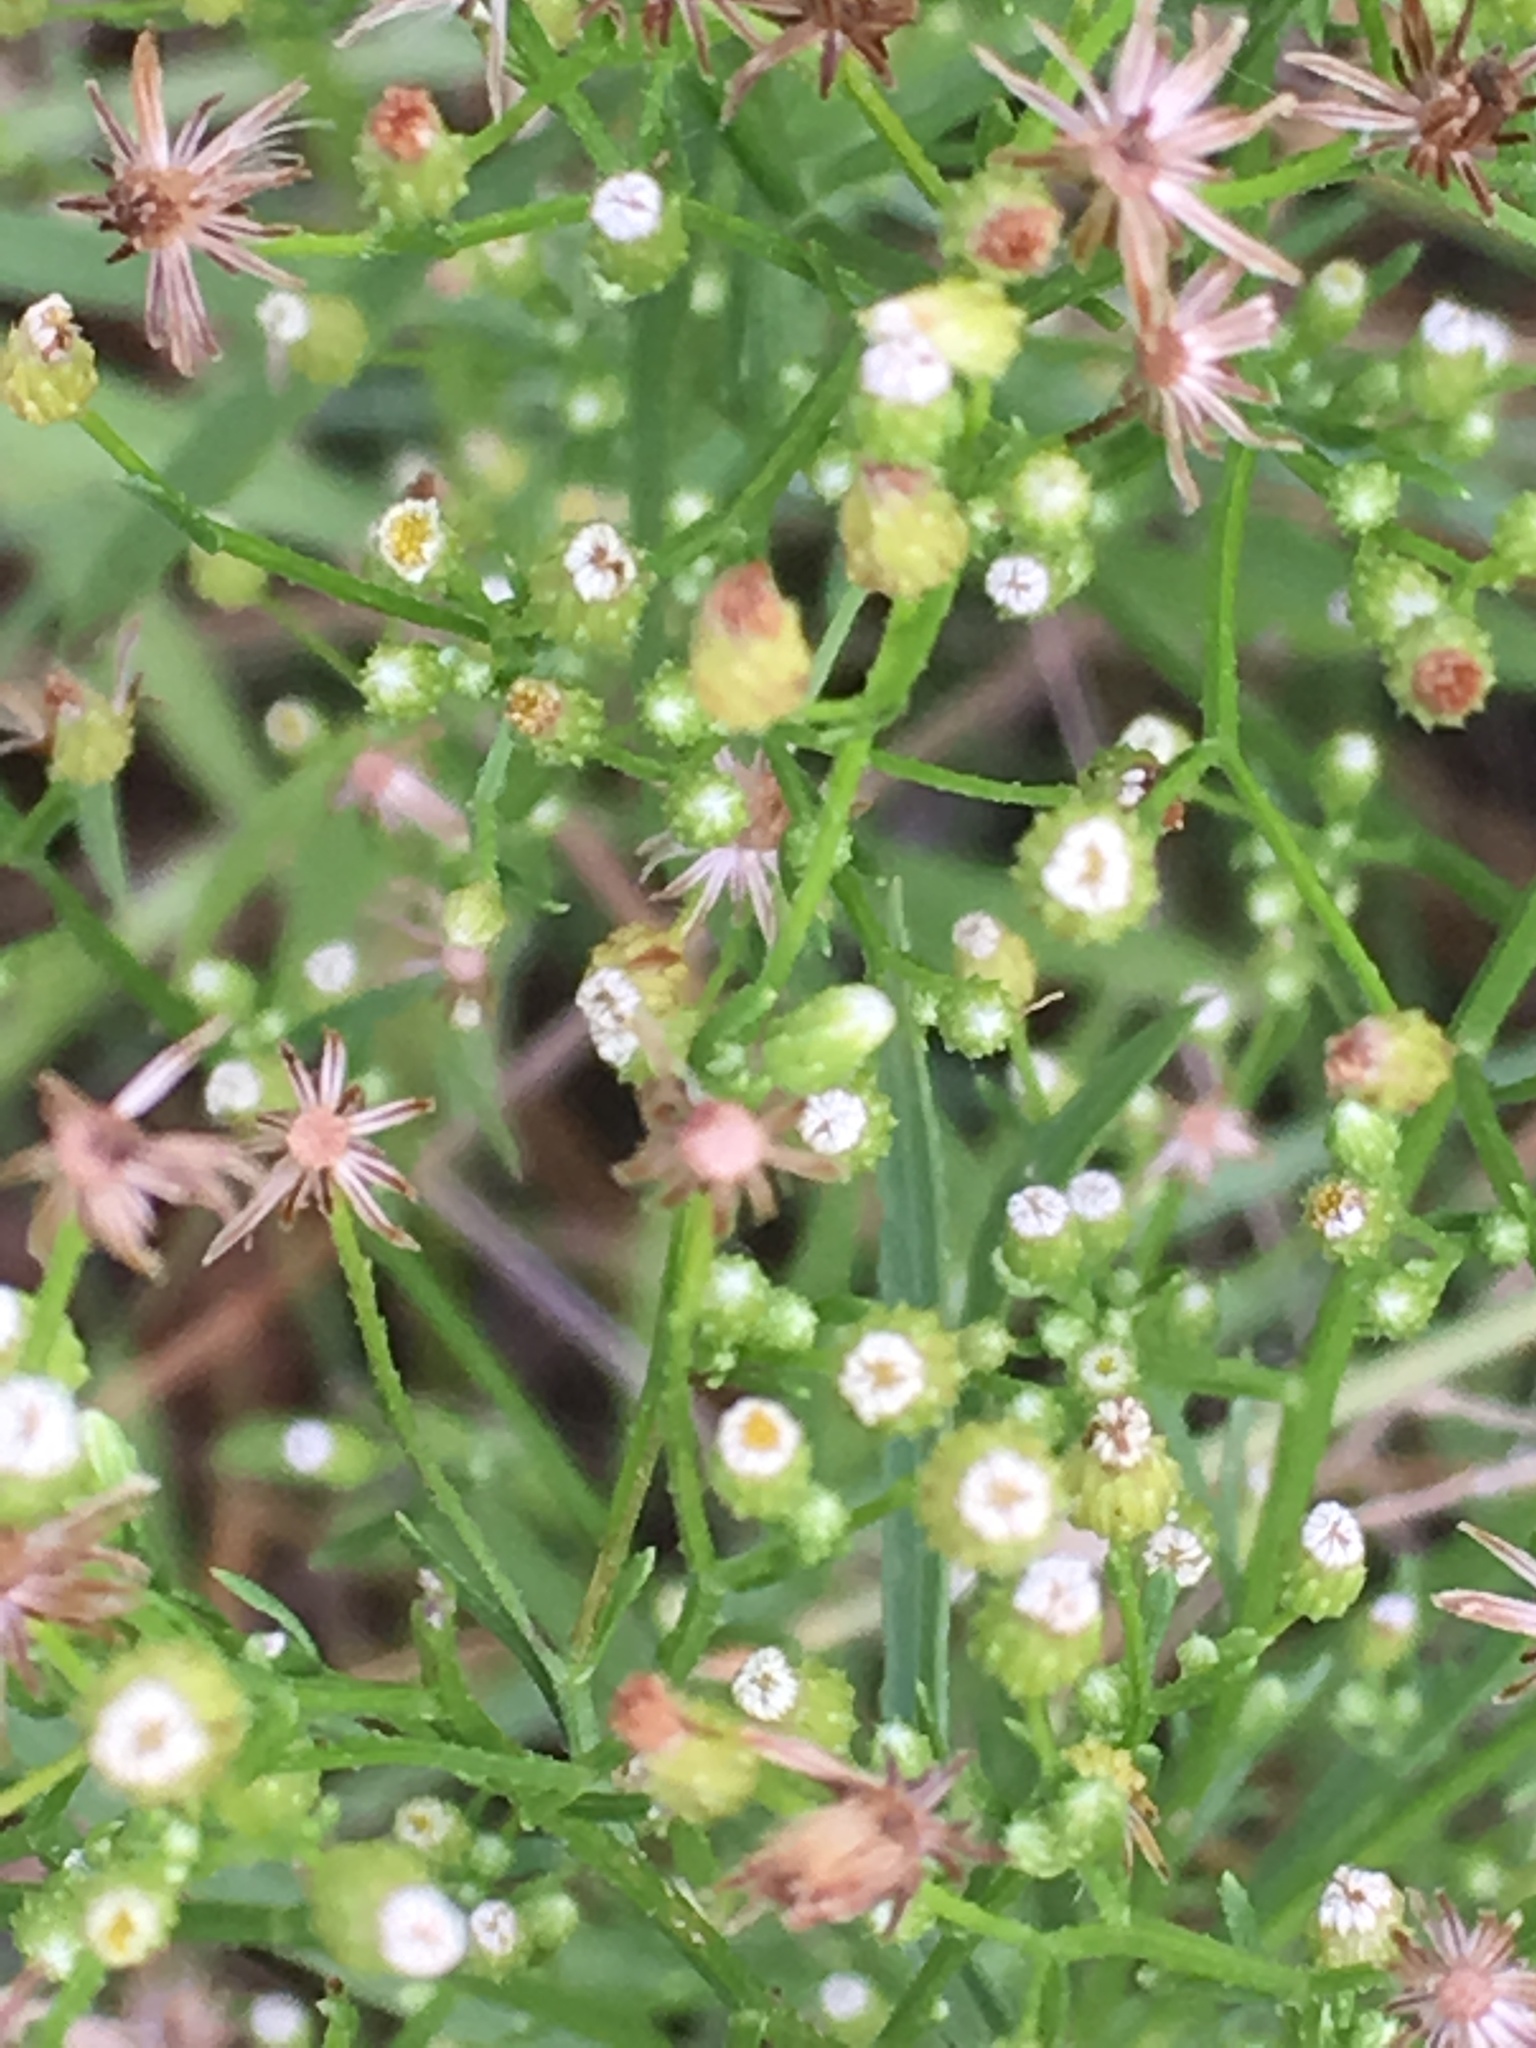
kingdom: Plantae
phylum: Tracheophyta
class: Magnoliopsida
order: Asterales
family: Asteraceae
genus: Erigeron
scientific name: Erigeron canadensis
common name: Canadian fleabane
